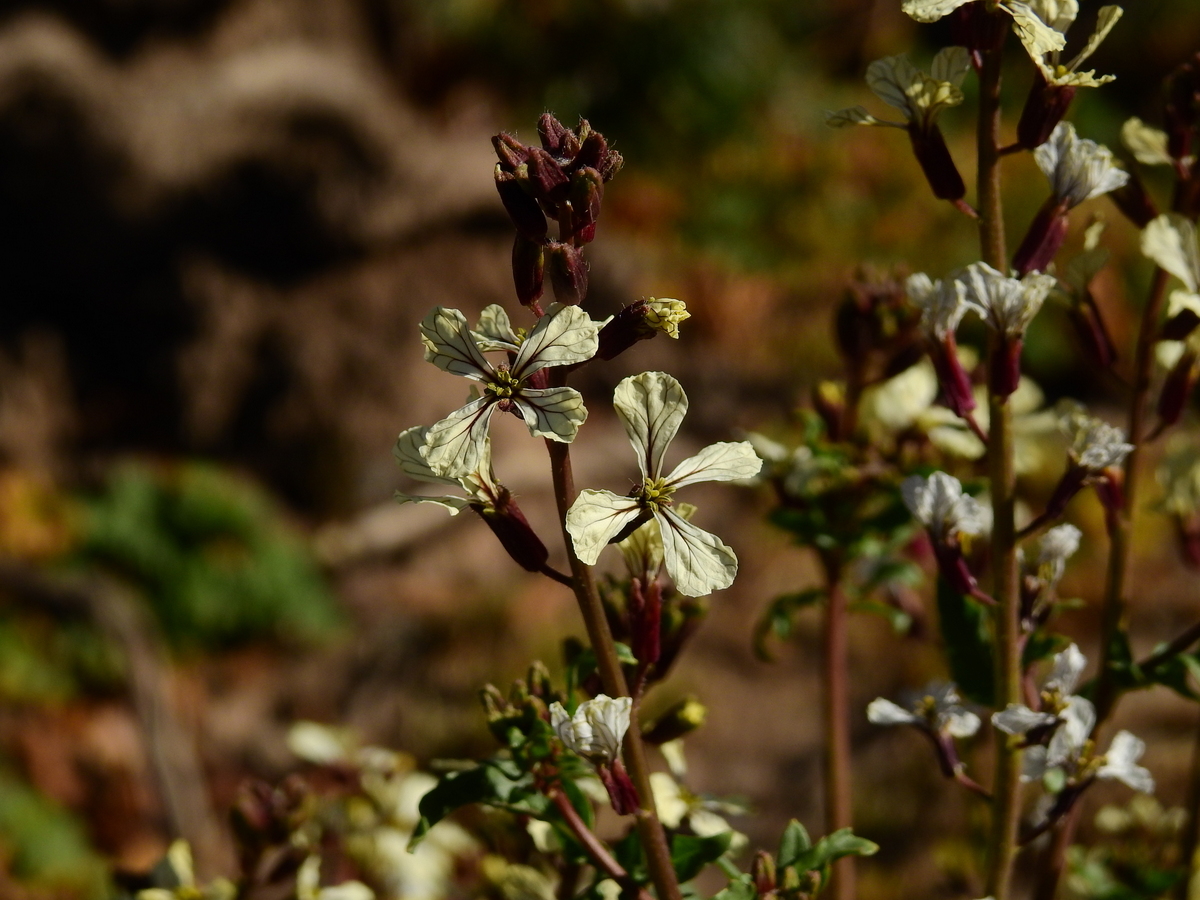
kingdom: Plantae
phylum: Tracheophyta
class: Magnoliopsida
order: Brassicales
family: Brassicaceae
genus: Eruca
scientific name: Eruca vesicaria
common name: Garden rocket
